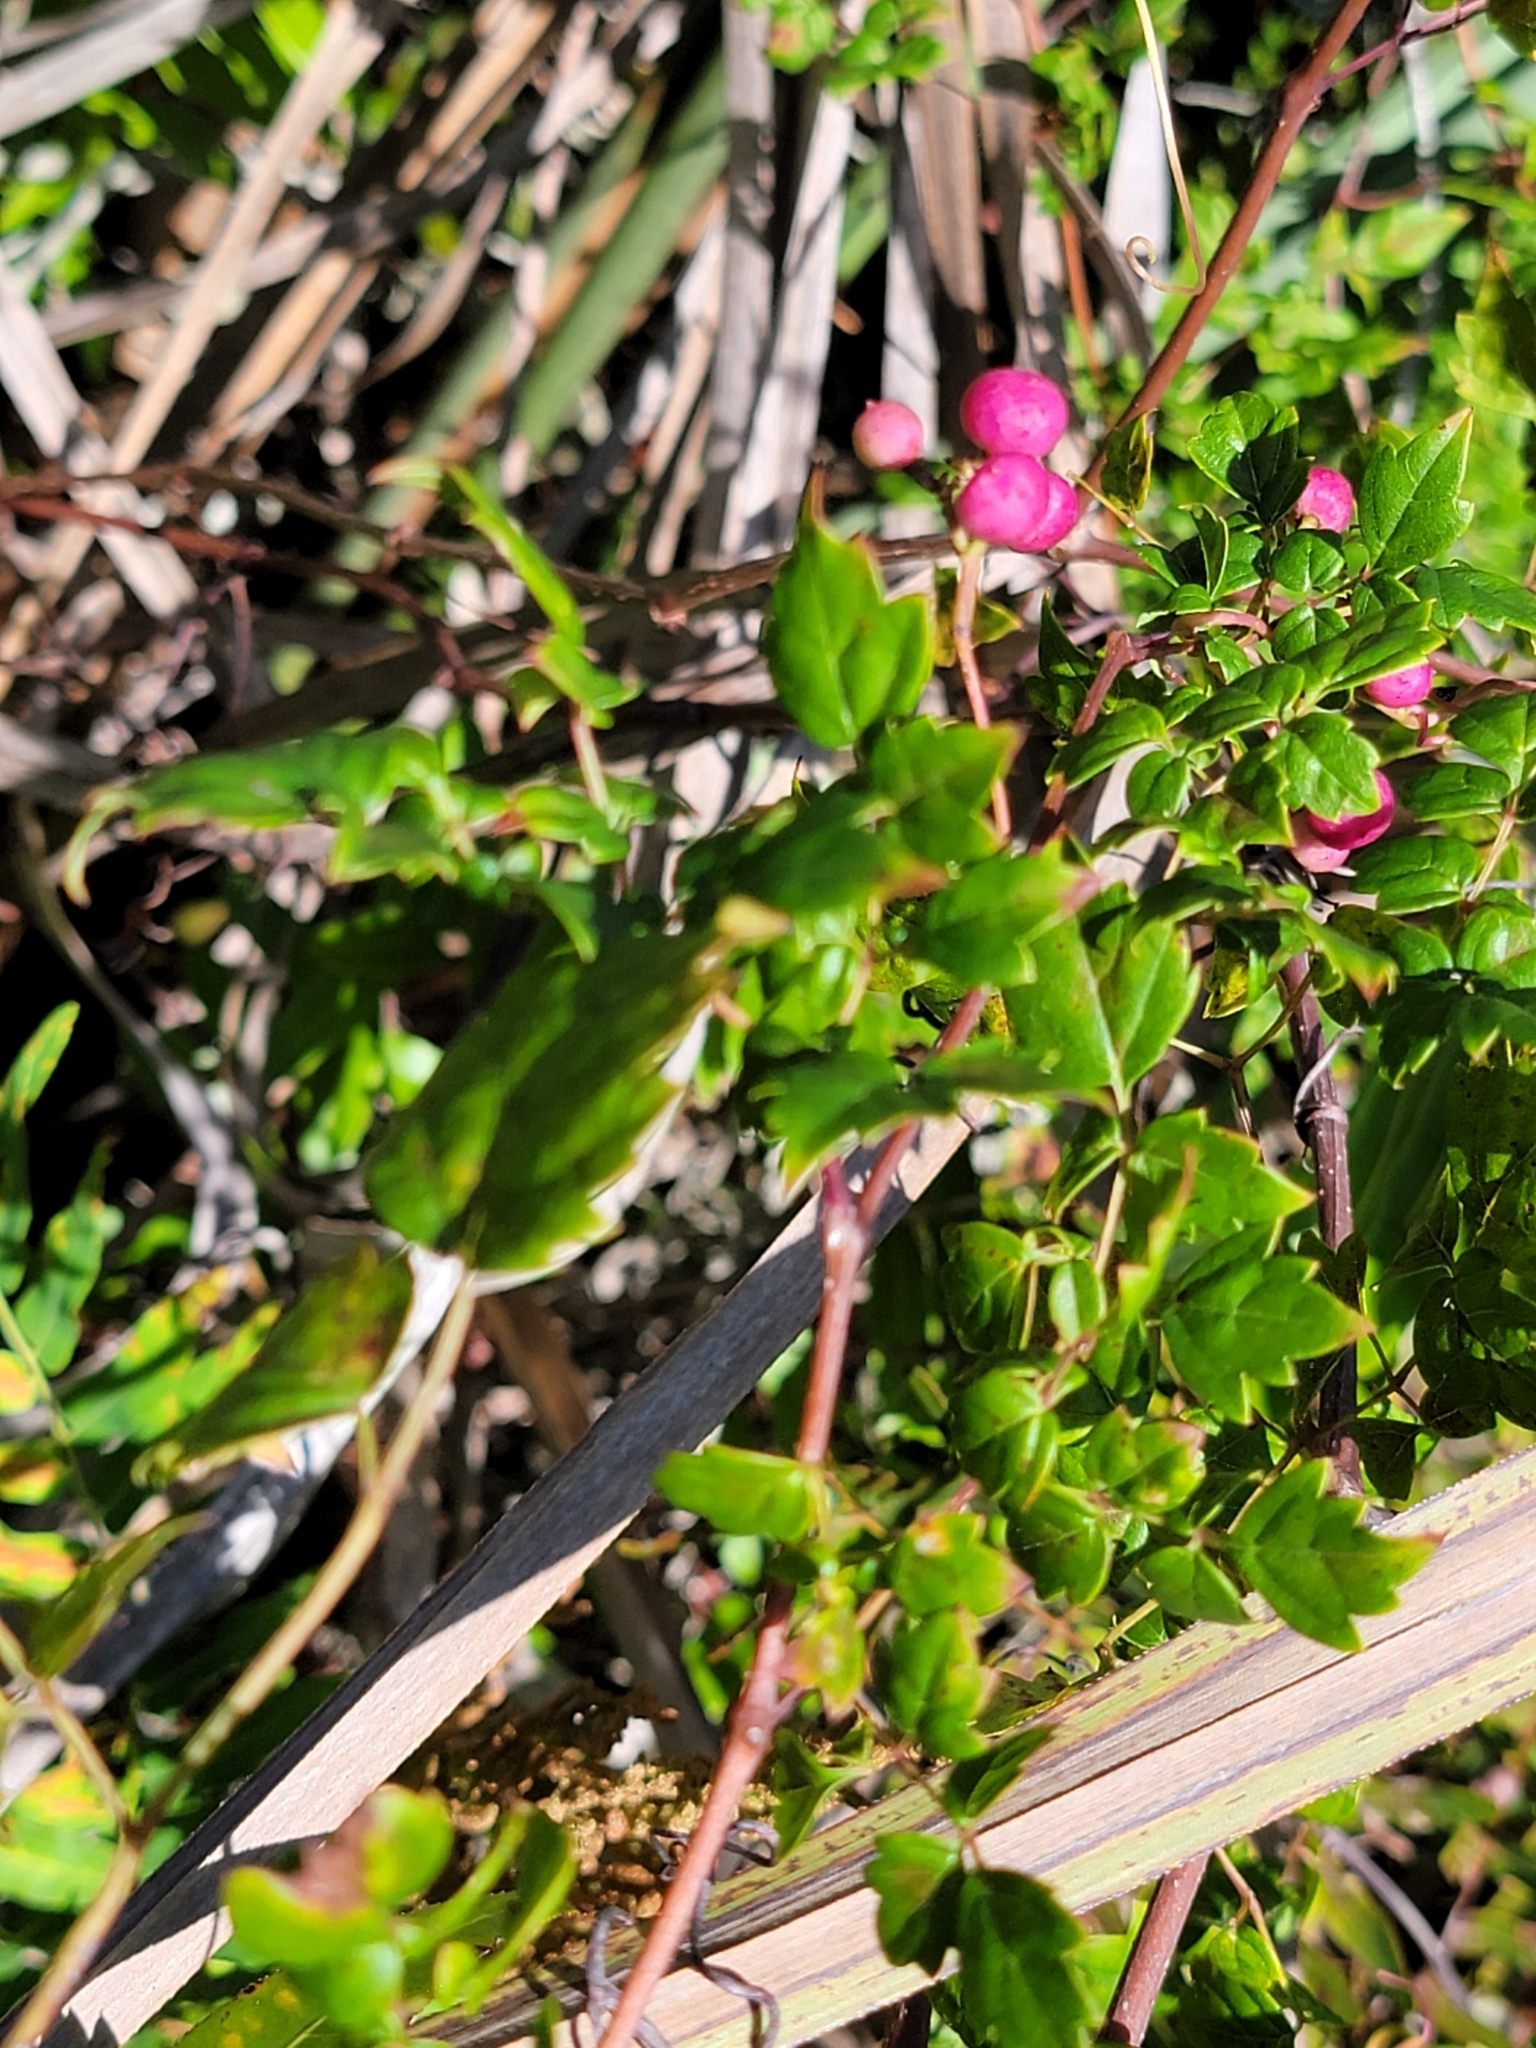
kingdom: Plantae
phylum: Tracheophyta
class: Magnoliopsida
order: Vitales
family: Vitaceae
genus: Nekemias
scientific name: Nekemias arborea
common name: Peppervine
